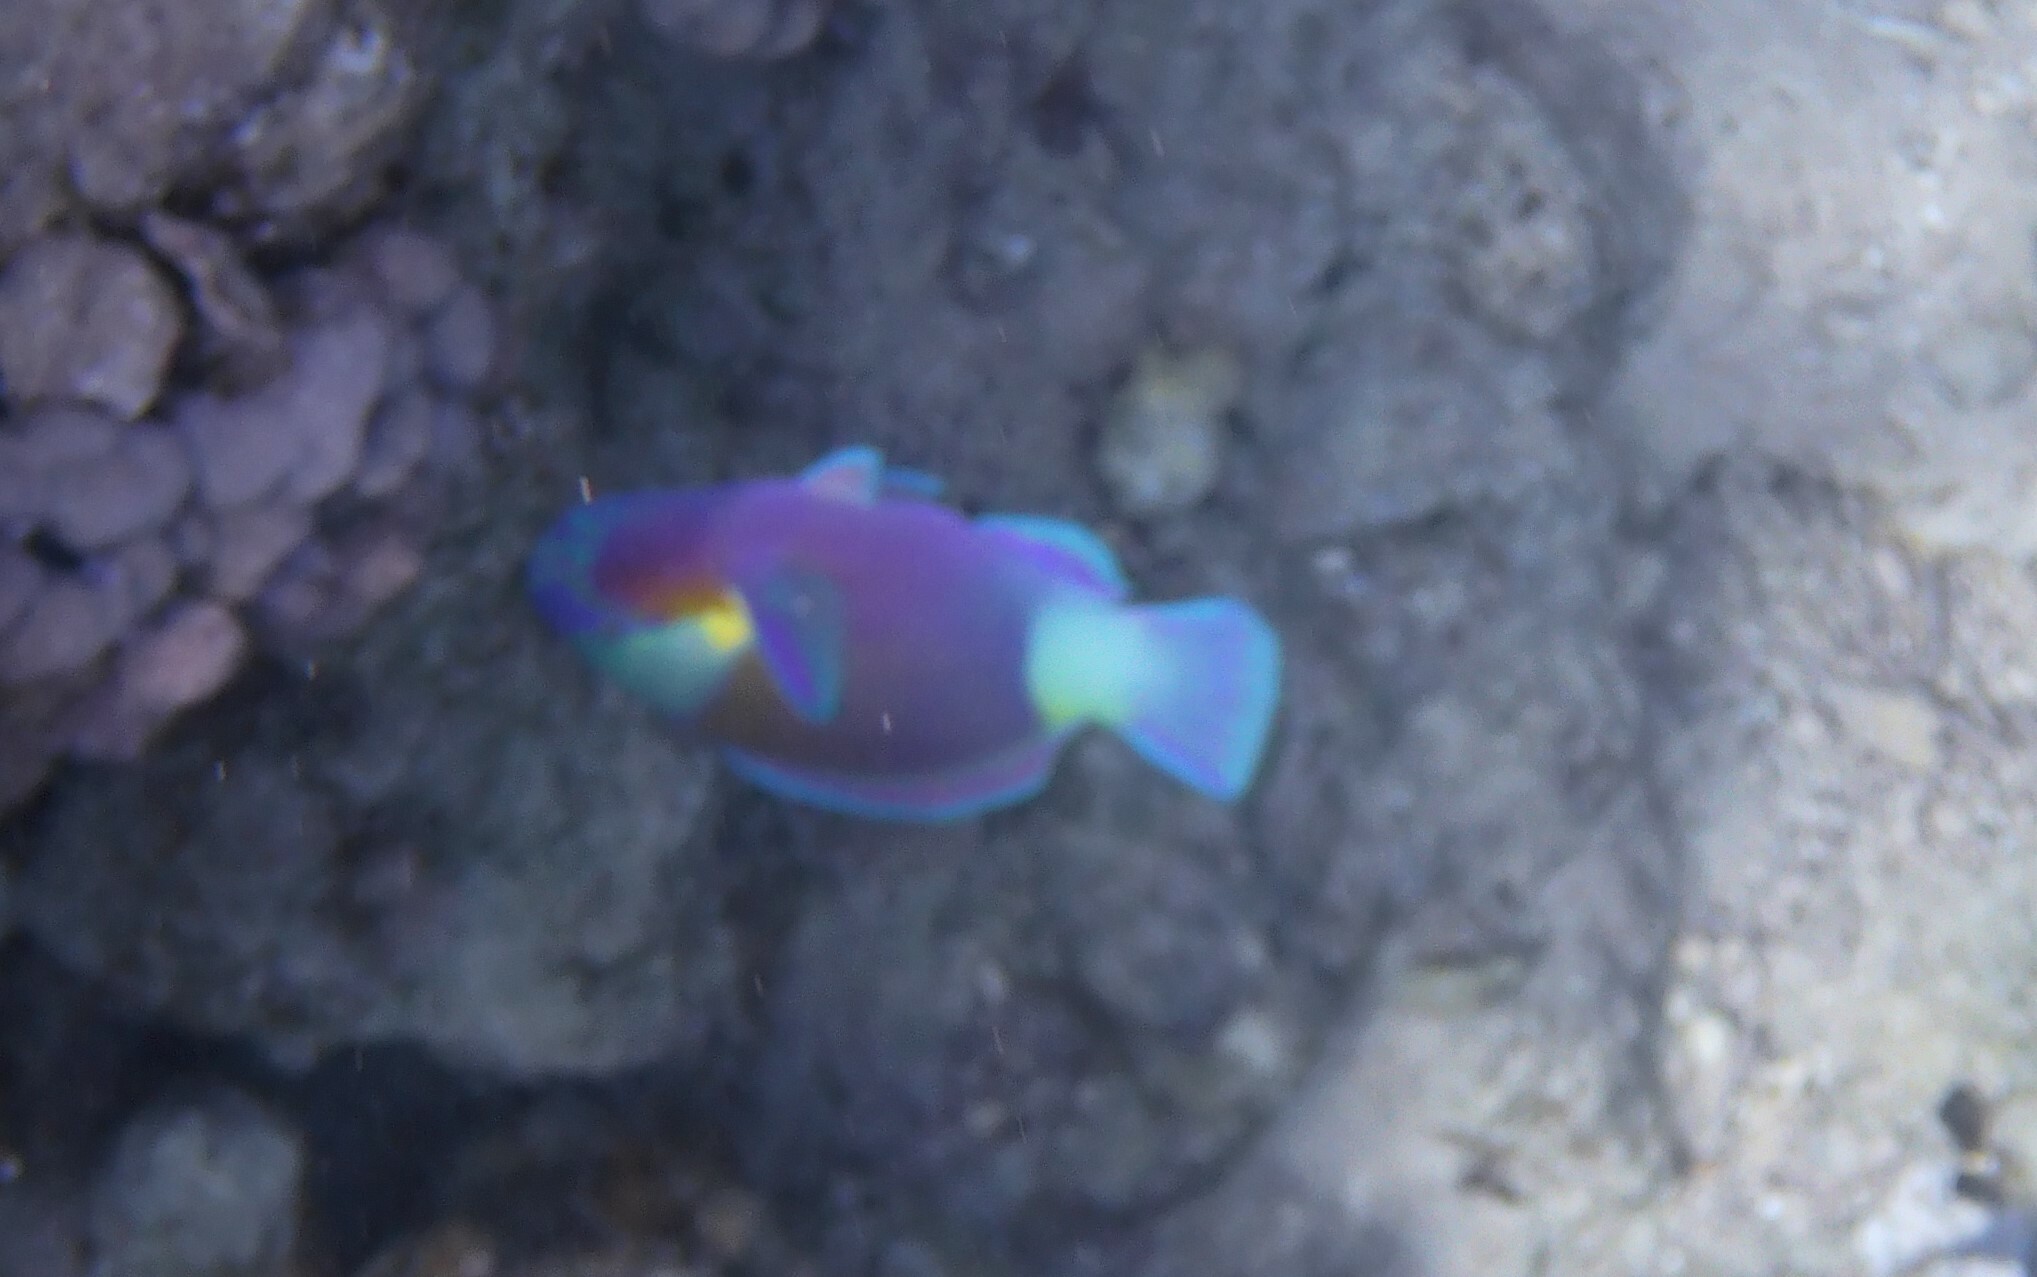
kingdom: Animalia
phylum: Chordata
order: Perciformes
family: Scaridae
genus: Chlorurus
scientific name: Chlorurus sordidus
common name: Bullethead parrotfish
